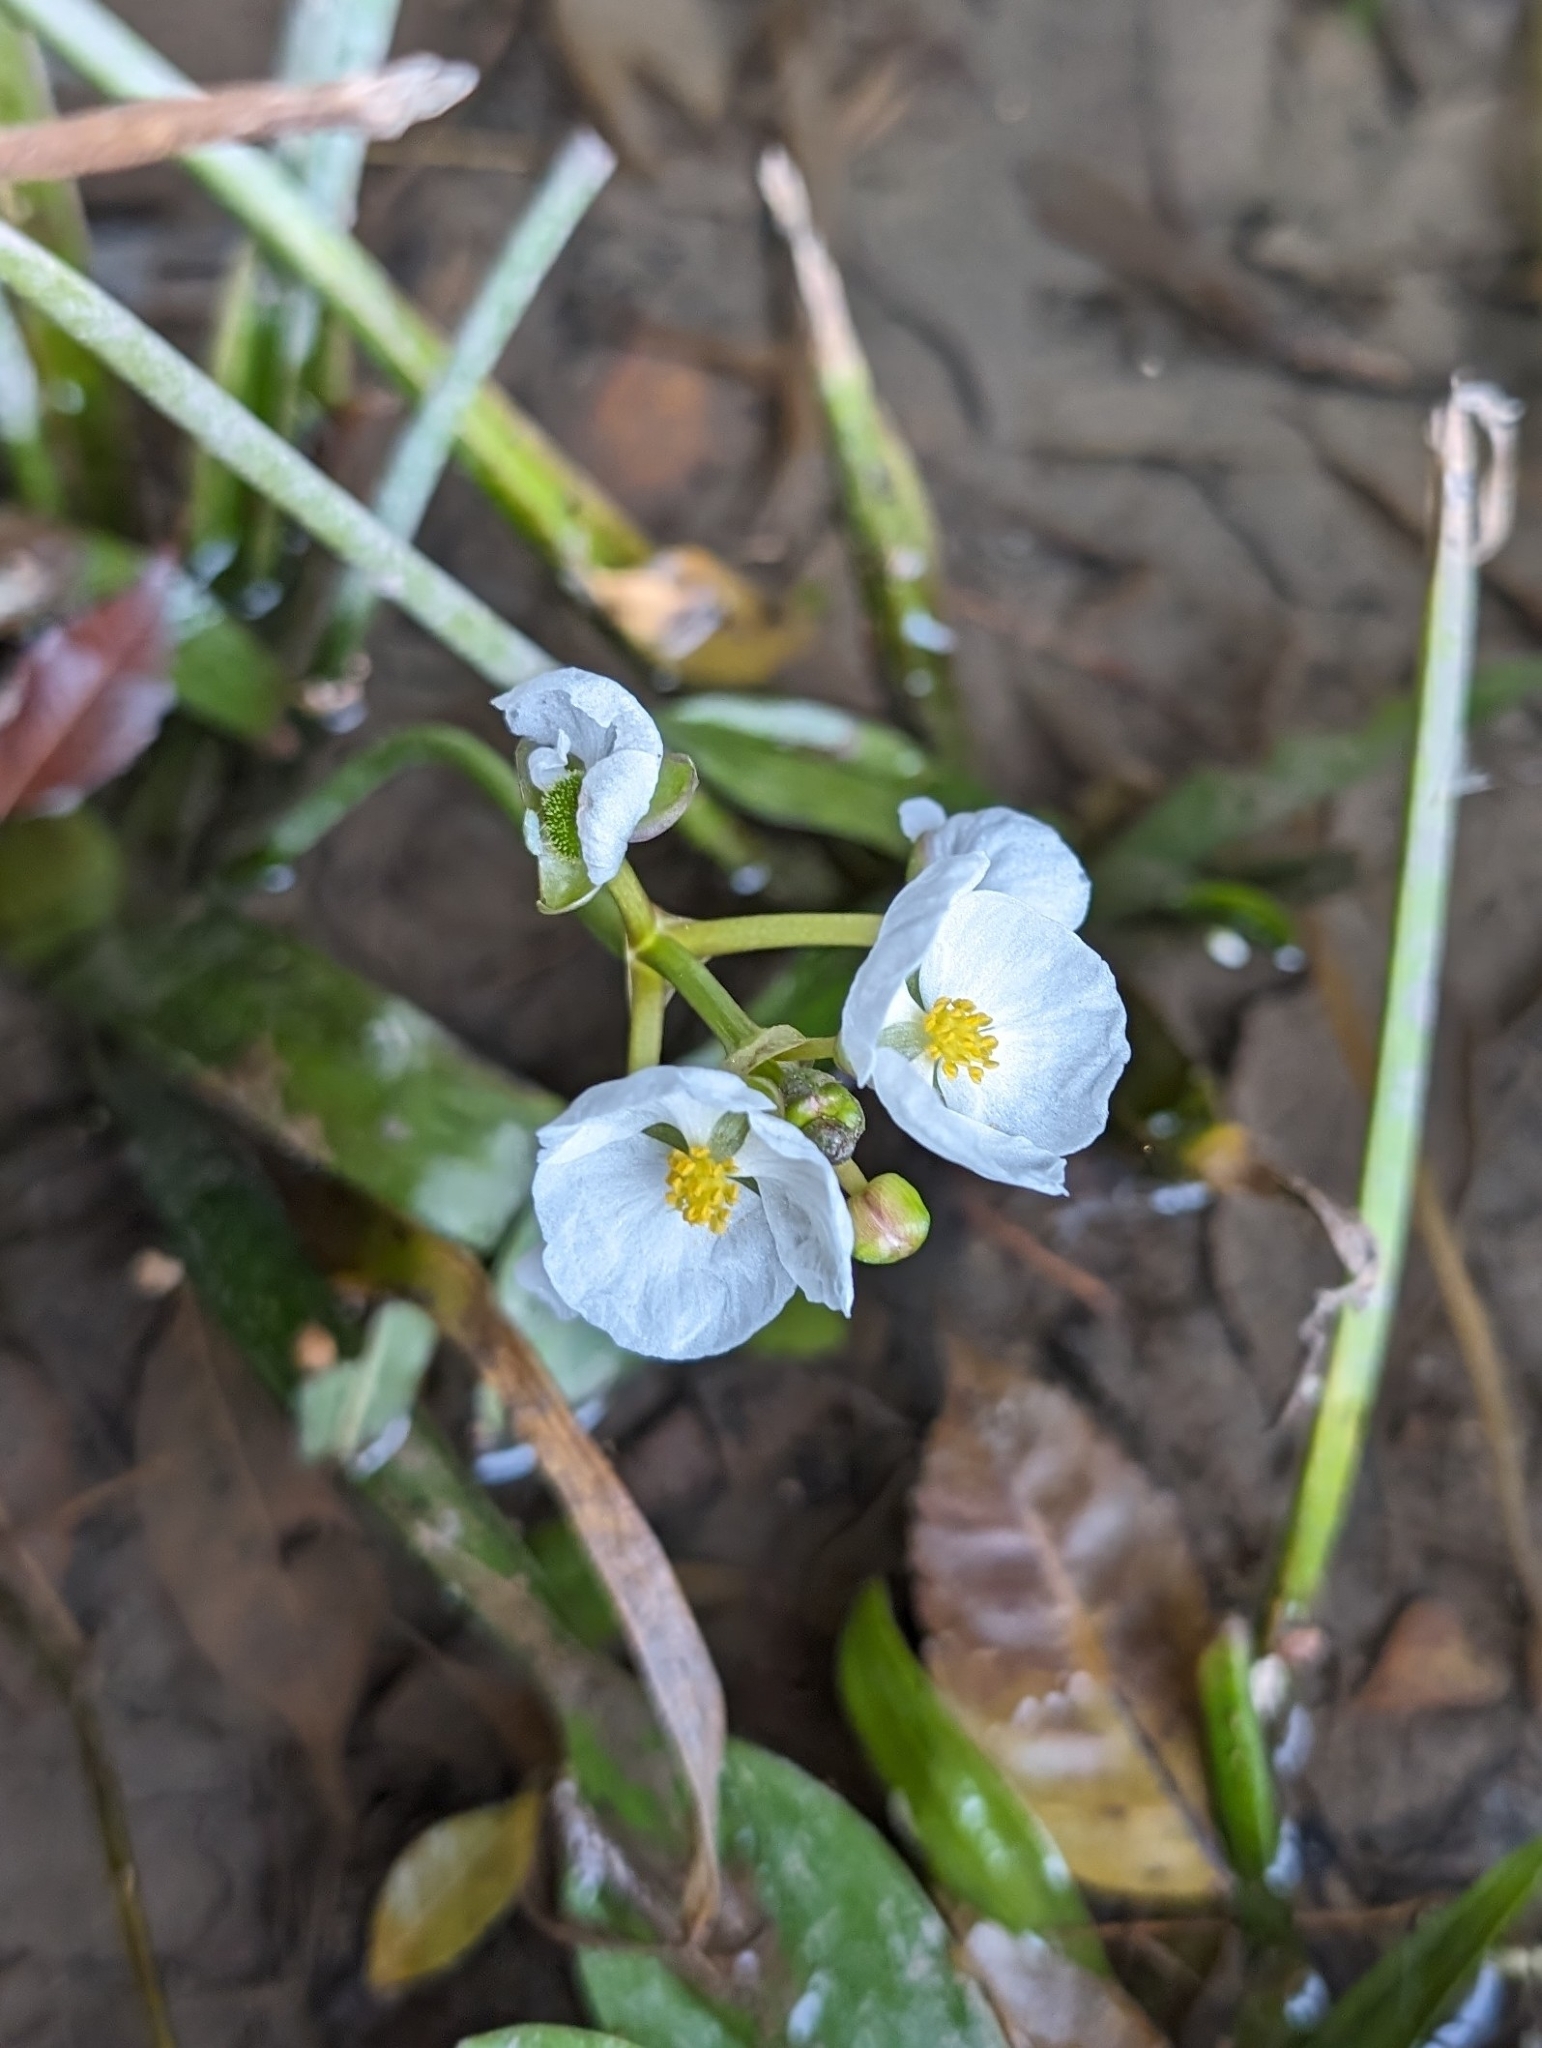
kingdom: Plantae
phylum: Tracheophyta
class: Liliopsida
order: Alismatales
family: Alismataceae
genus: Sagittaria
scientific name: Sagittaria platyphylla
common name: Broad-leaf arrowhead
